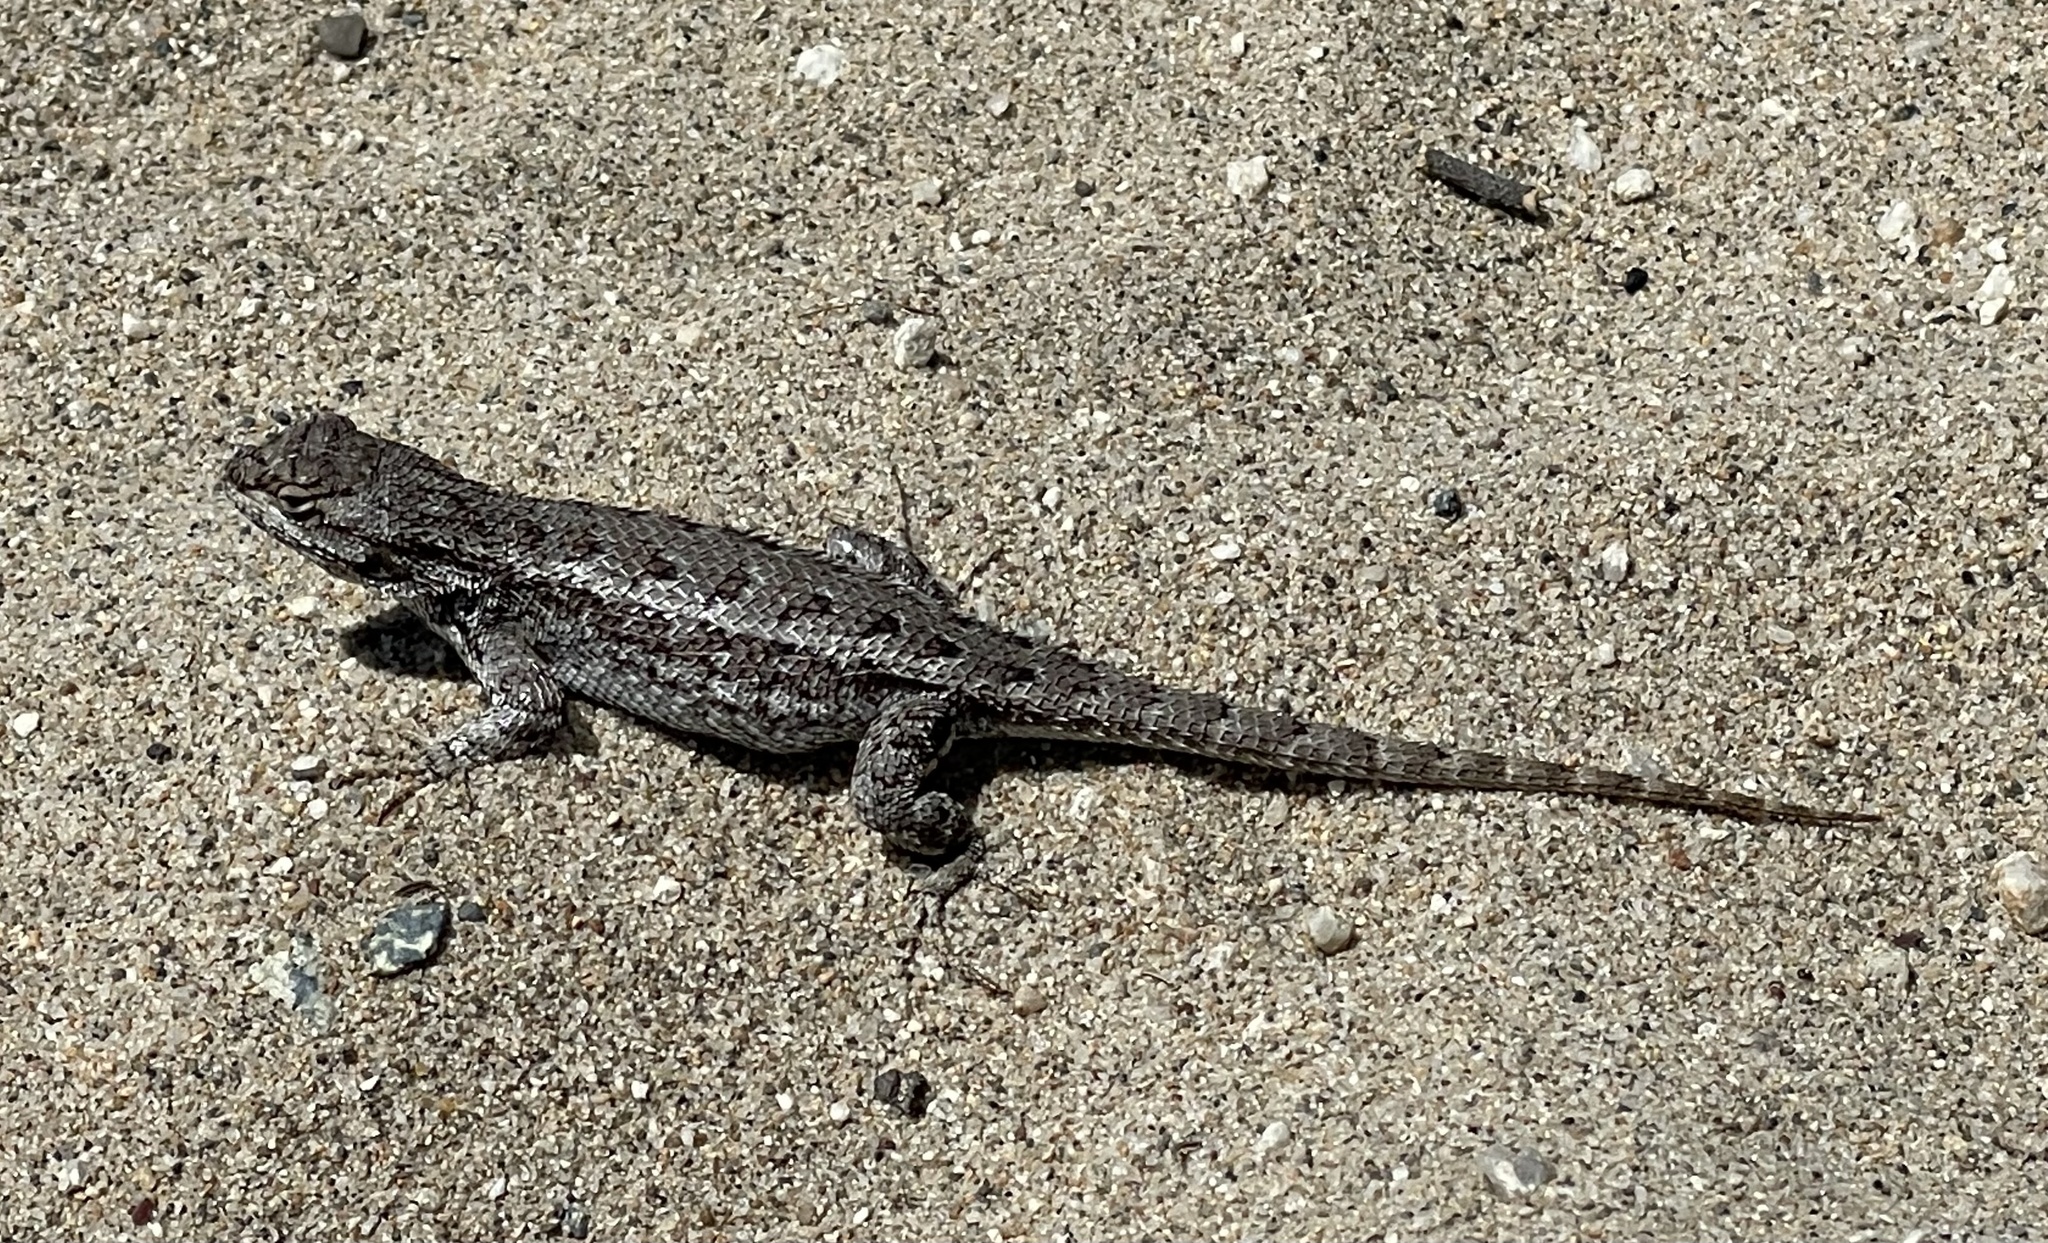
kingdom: Animalia
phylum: Chordata
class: Squamata
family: Phrynosomatidae
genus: Sceloporus
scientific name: Sceloporus occidentalis
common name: Western fence lizard
